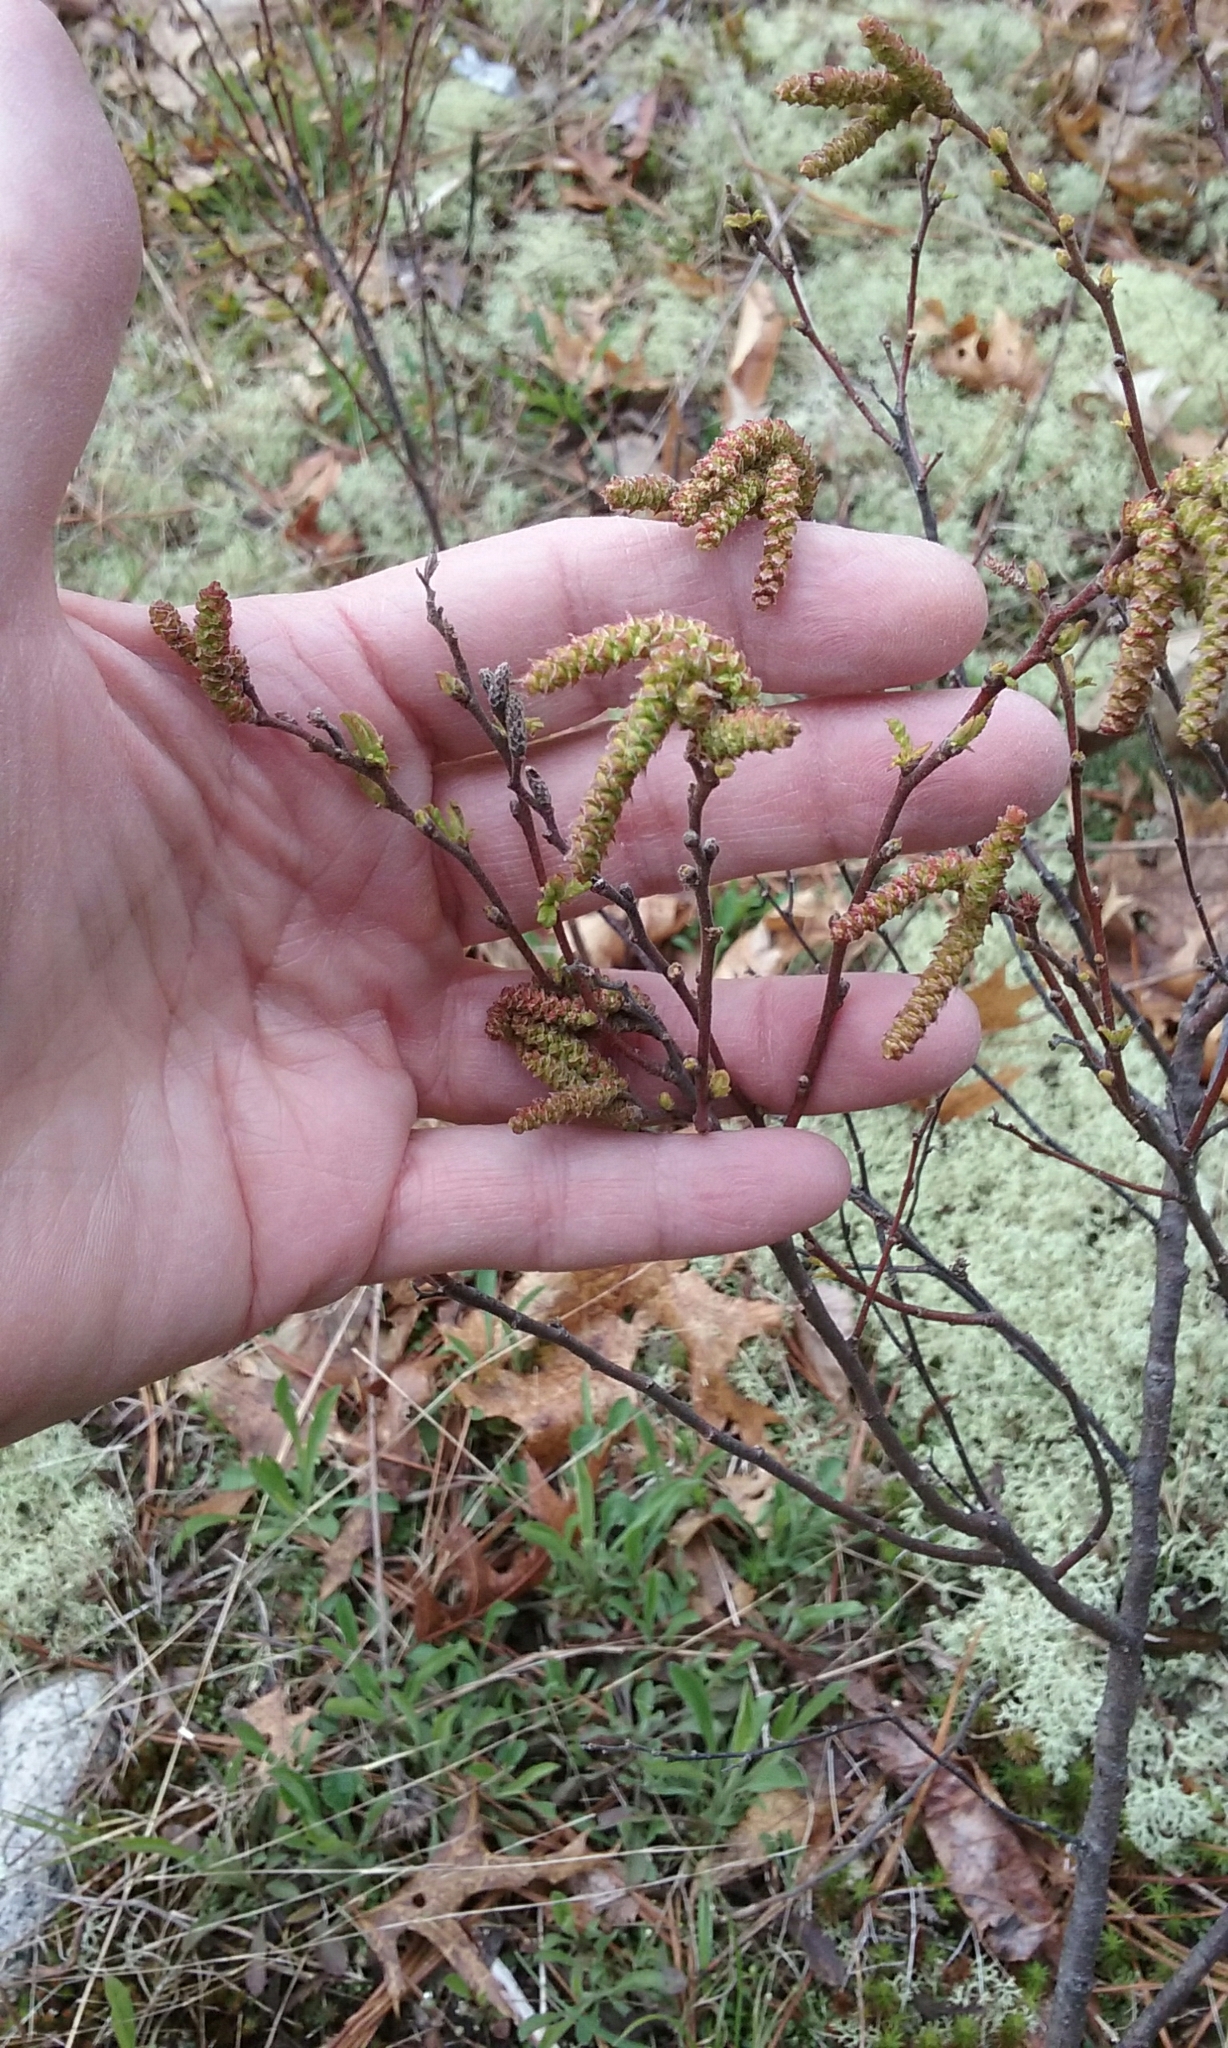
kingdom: Plantae
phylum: Tracheophyta
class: Magnoliopsida
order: Fagales
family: Myricaceae
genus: Comptonia
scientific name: Comptonia peregrina
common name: Sweet-fern
